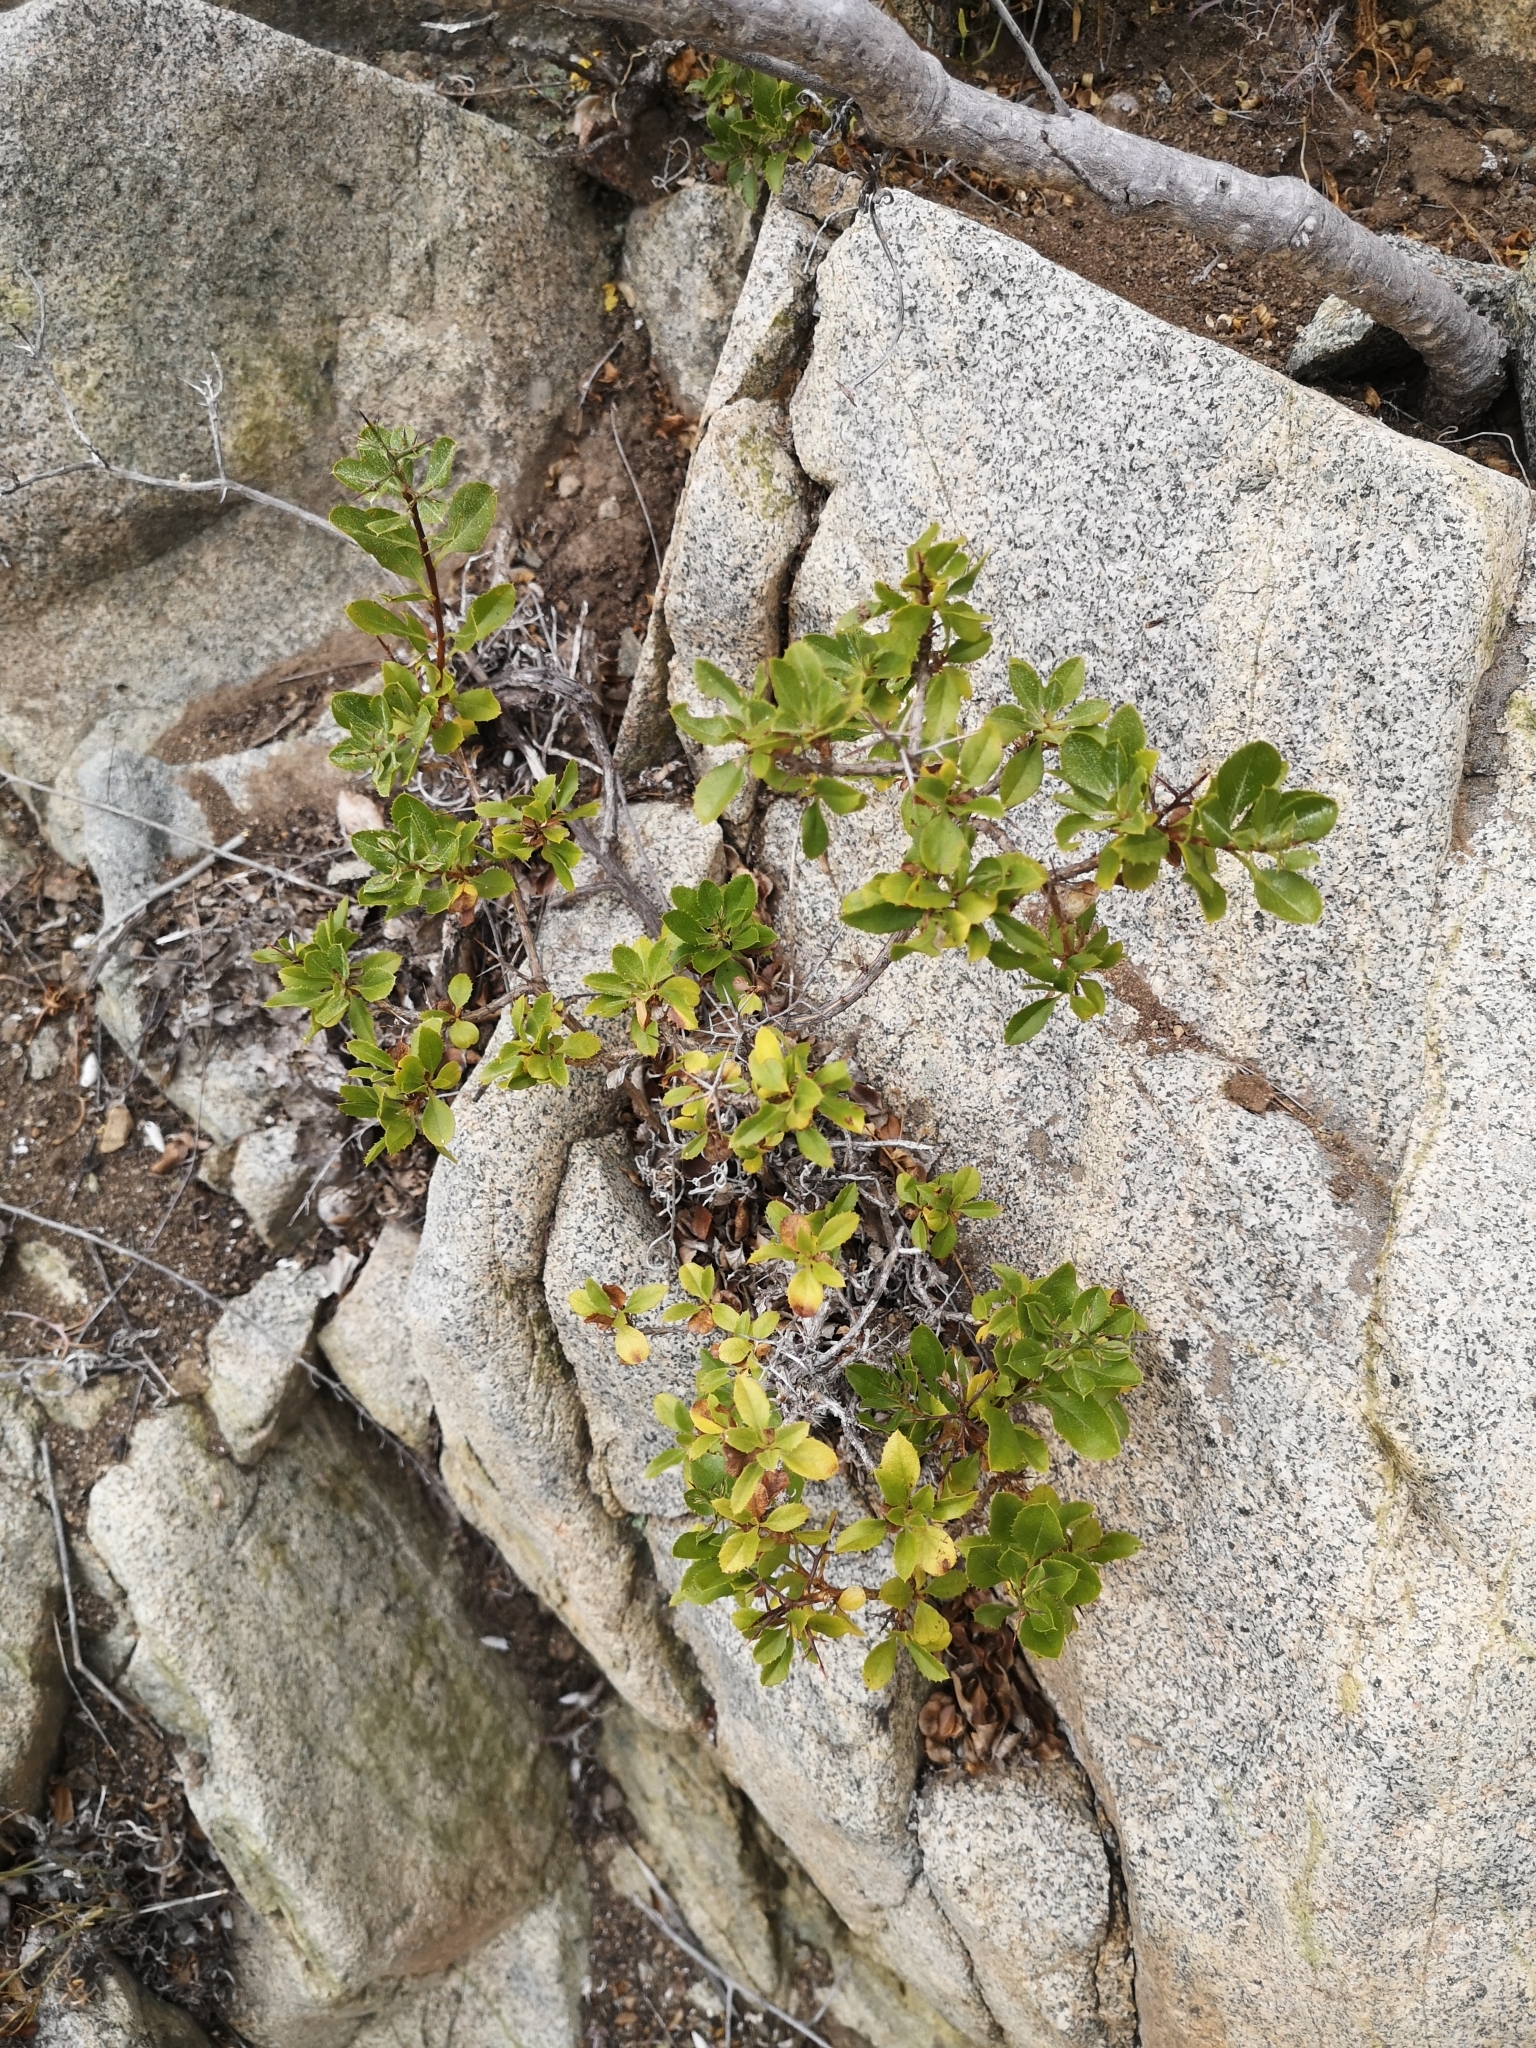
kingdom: Plantae
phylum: Tracheophyta
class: Magnoliopsida
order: Asterales
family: Asteraceae
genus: Proustia
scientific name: Proustia cuneifolia
